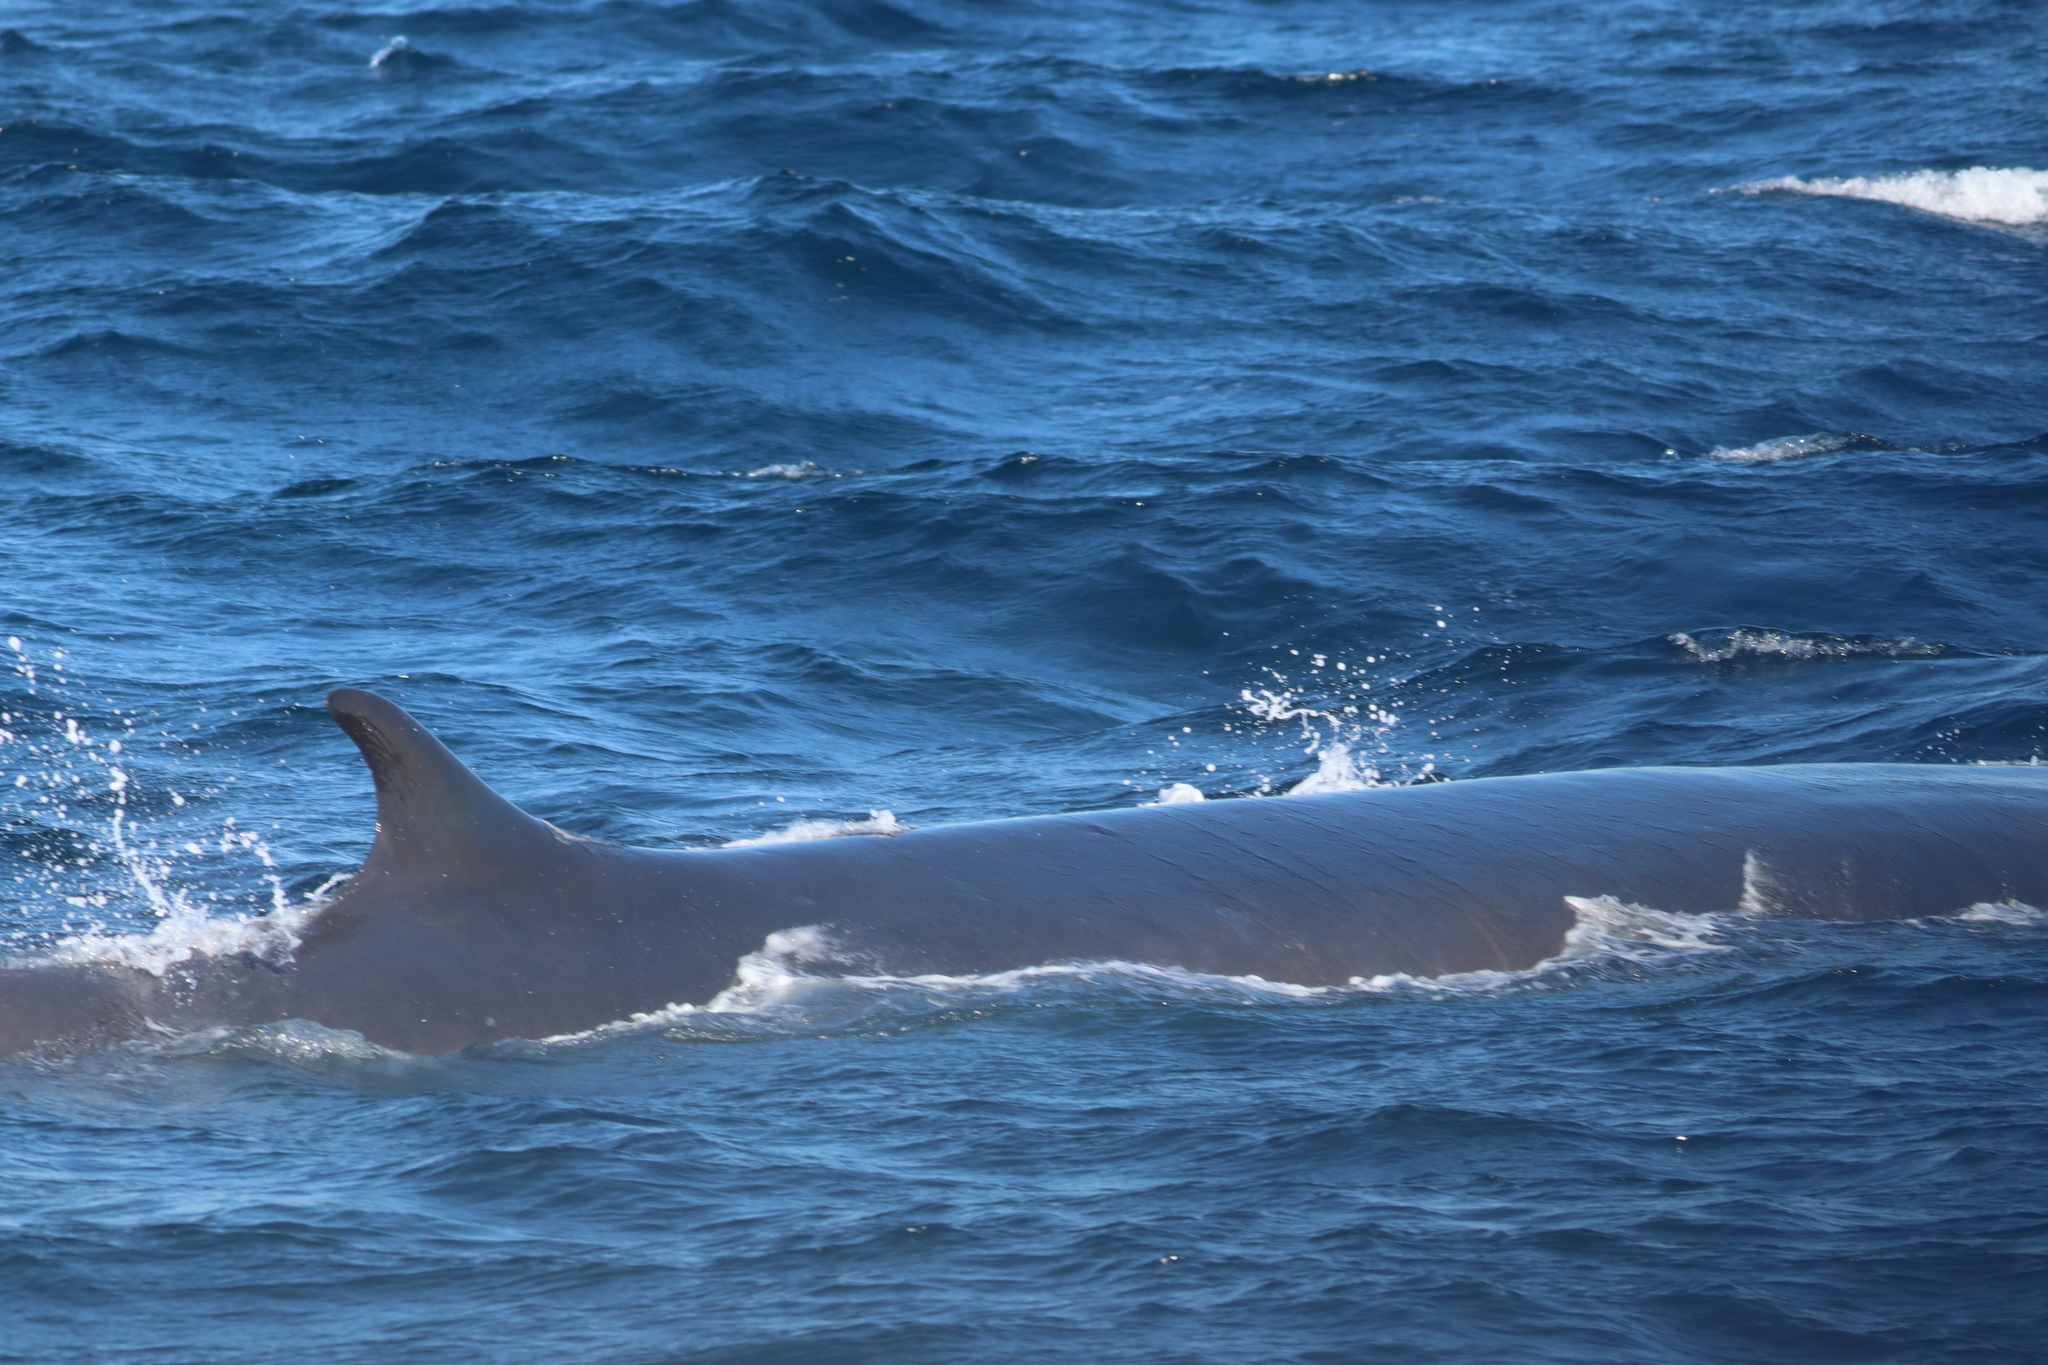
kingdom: Animalia
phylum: Chordata
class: Mammalia
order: Cetacea
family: Balaenopteridae
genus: Balaenoptera
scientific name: Balaenoptera physalus
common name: Fin whale
